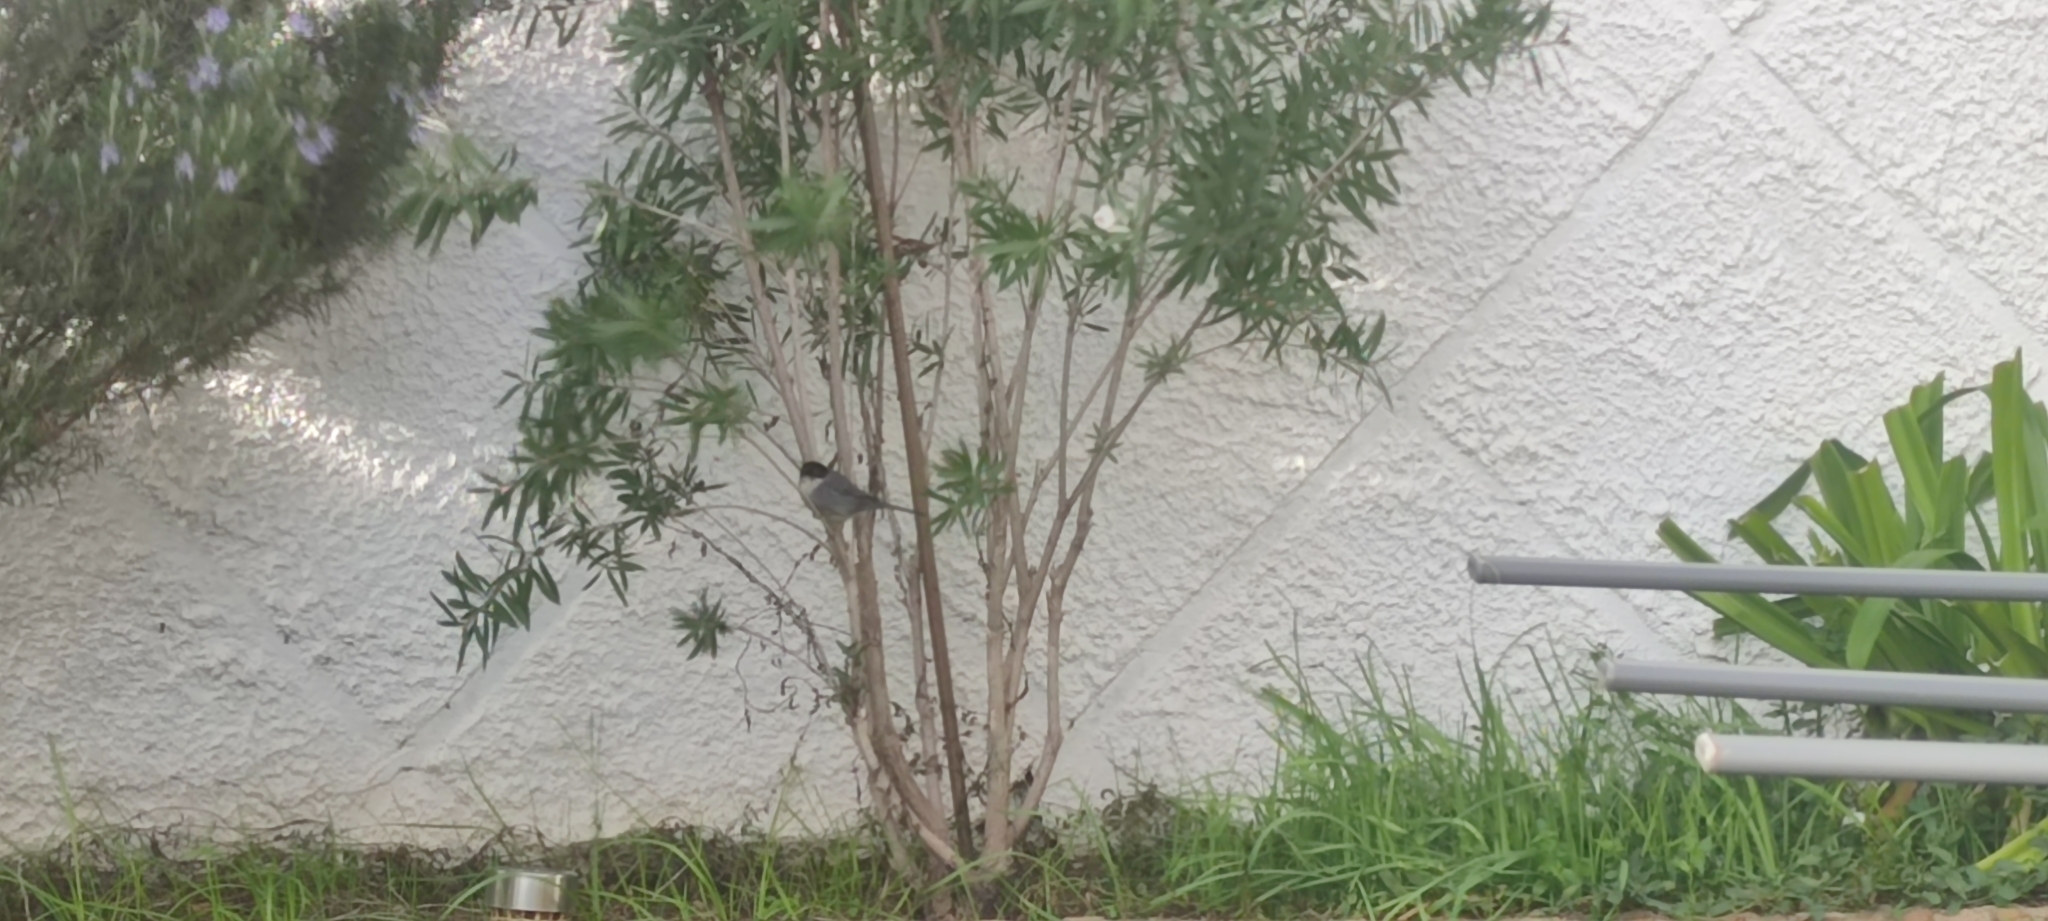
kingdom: Animalia
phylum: Chordata
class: Aves
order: Passeriformes
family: Sylviidae
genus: Curruca
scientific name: Curruca melanocephala
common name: Sardinian warbler
